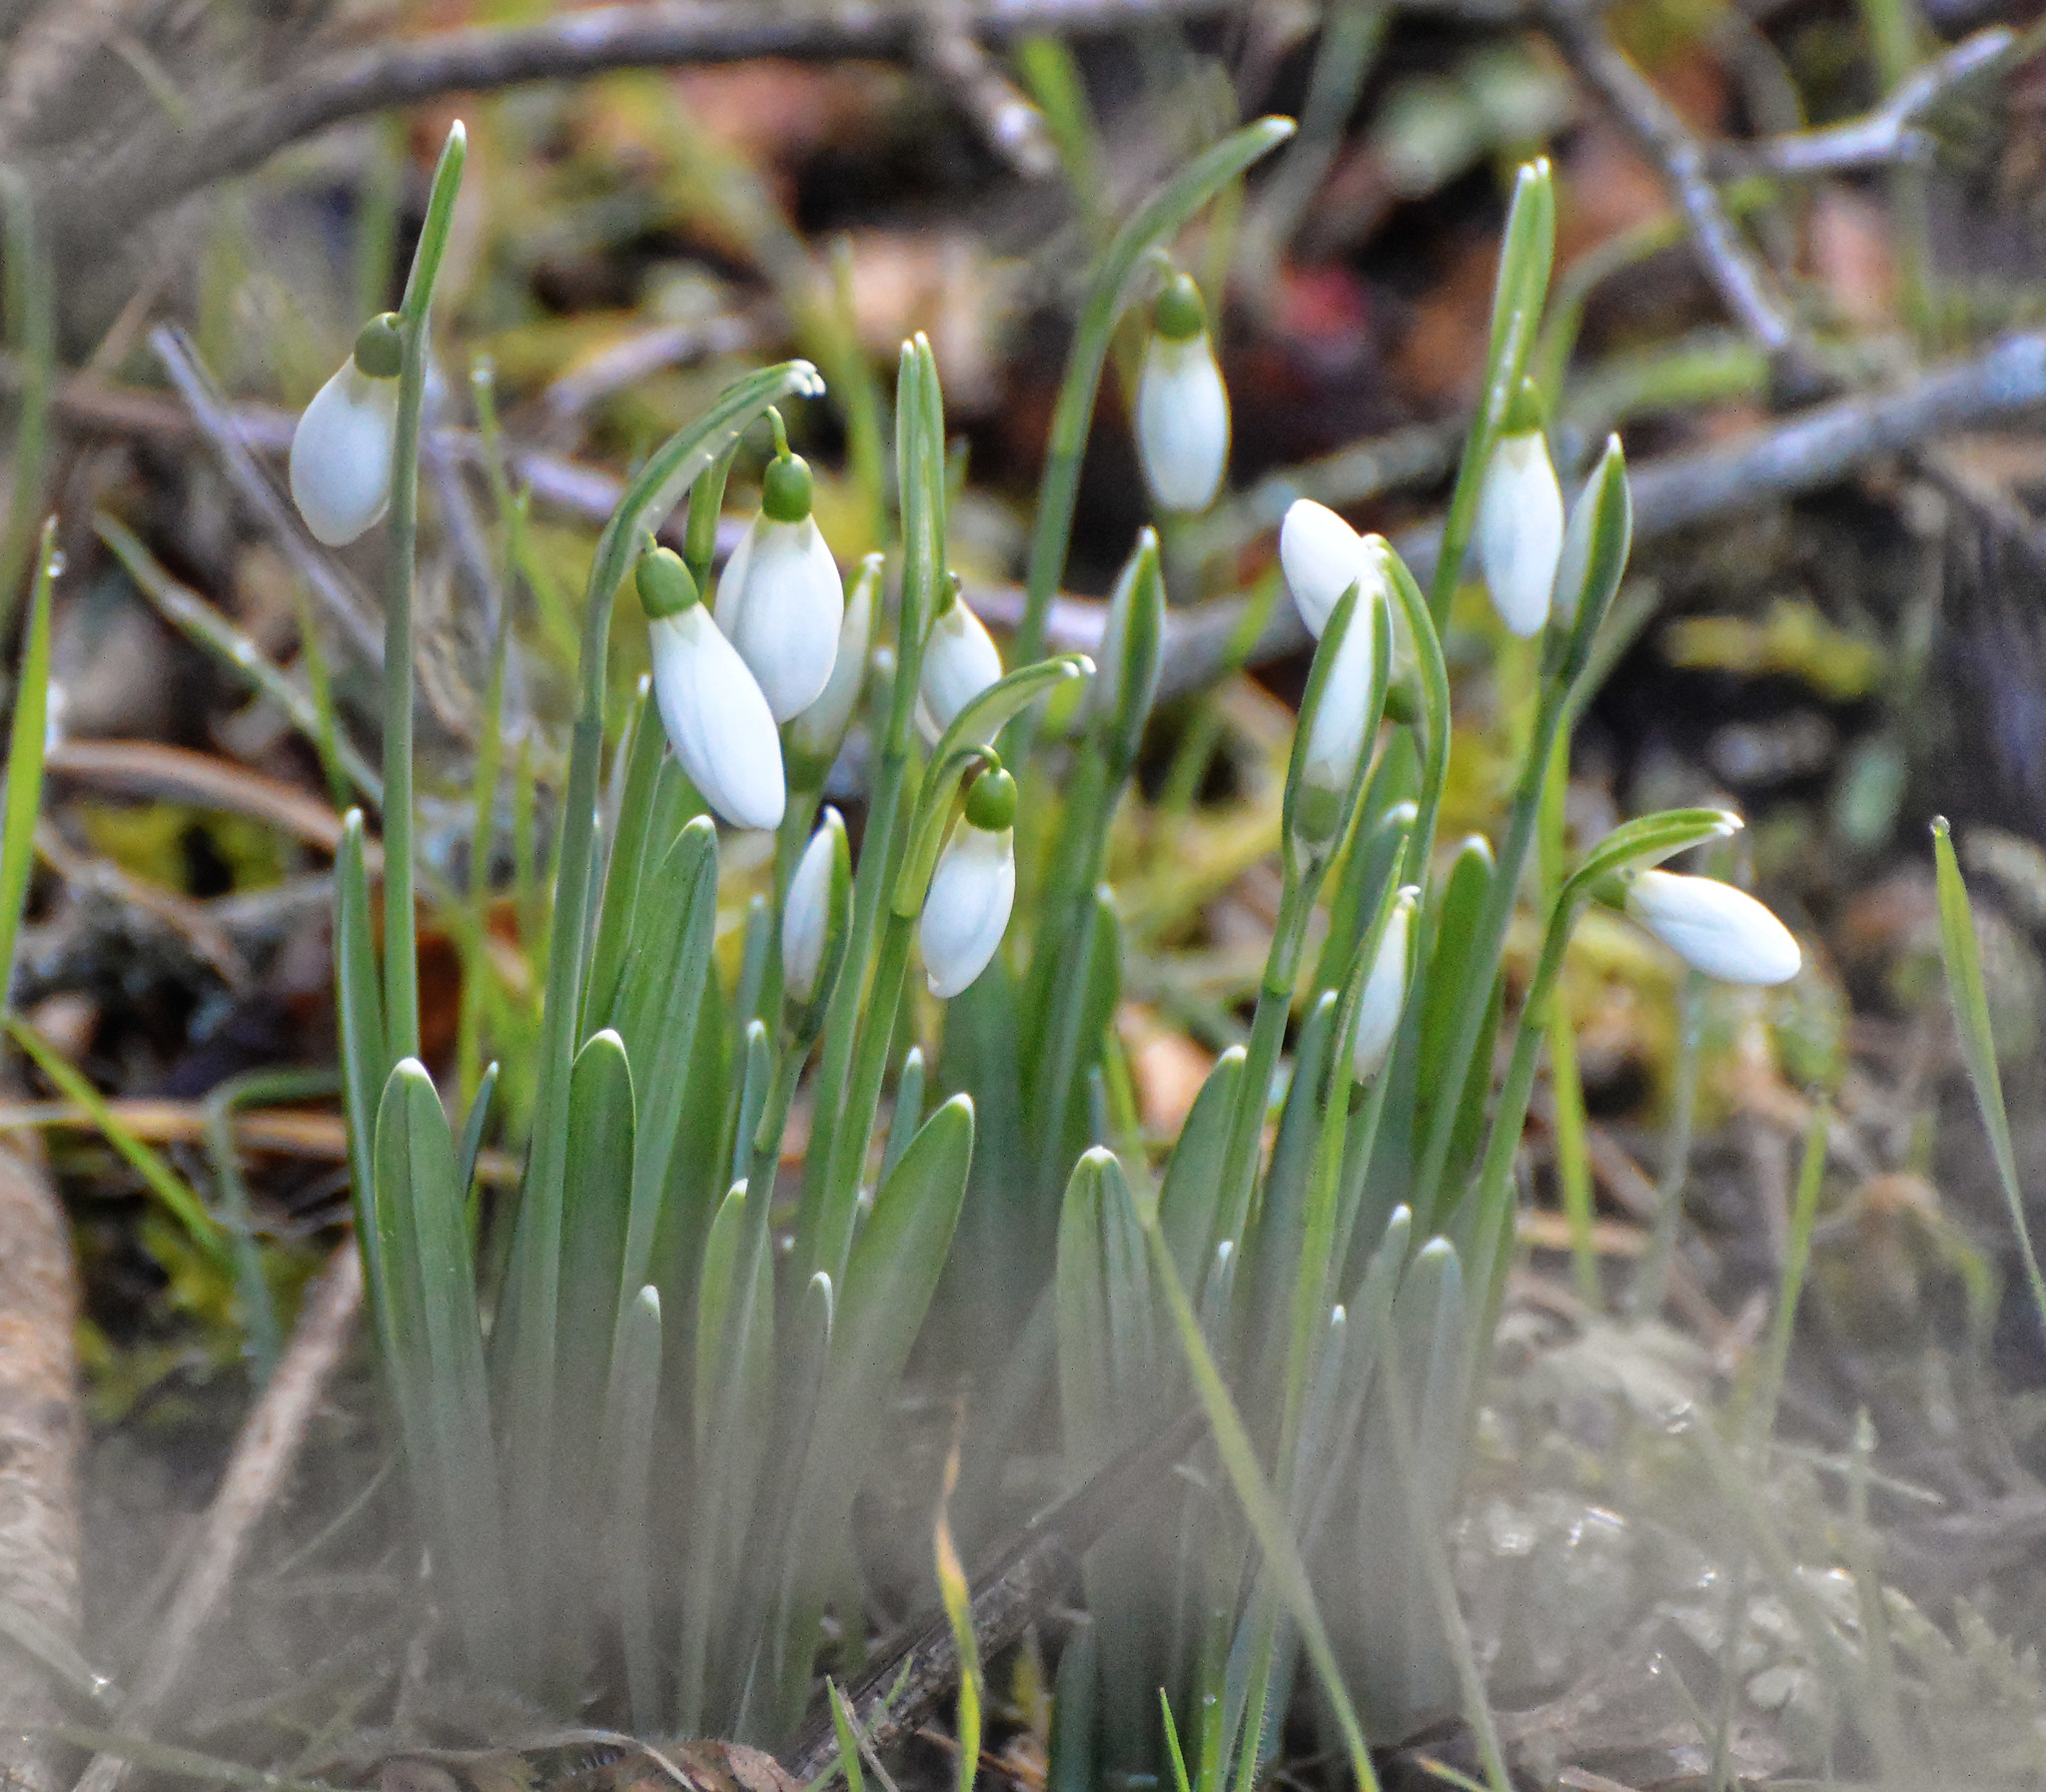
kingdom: Plantae
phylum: Tracheophyta
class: Liliopsida
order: Asparagales
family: Amaryllidaceae
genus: Galanthus
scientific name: Galanthus nivalis
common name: Snowdrop
